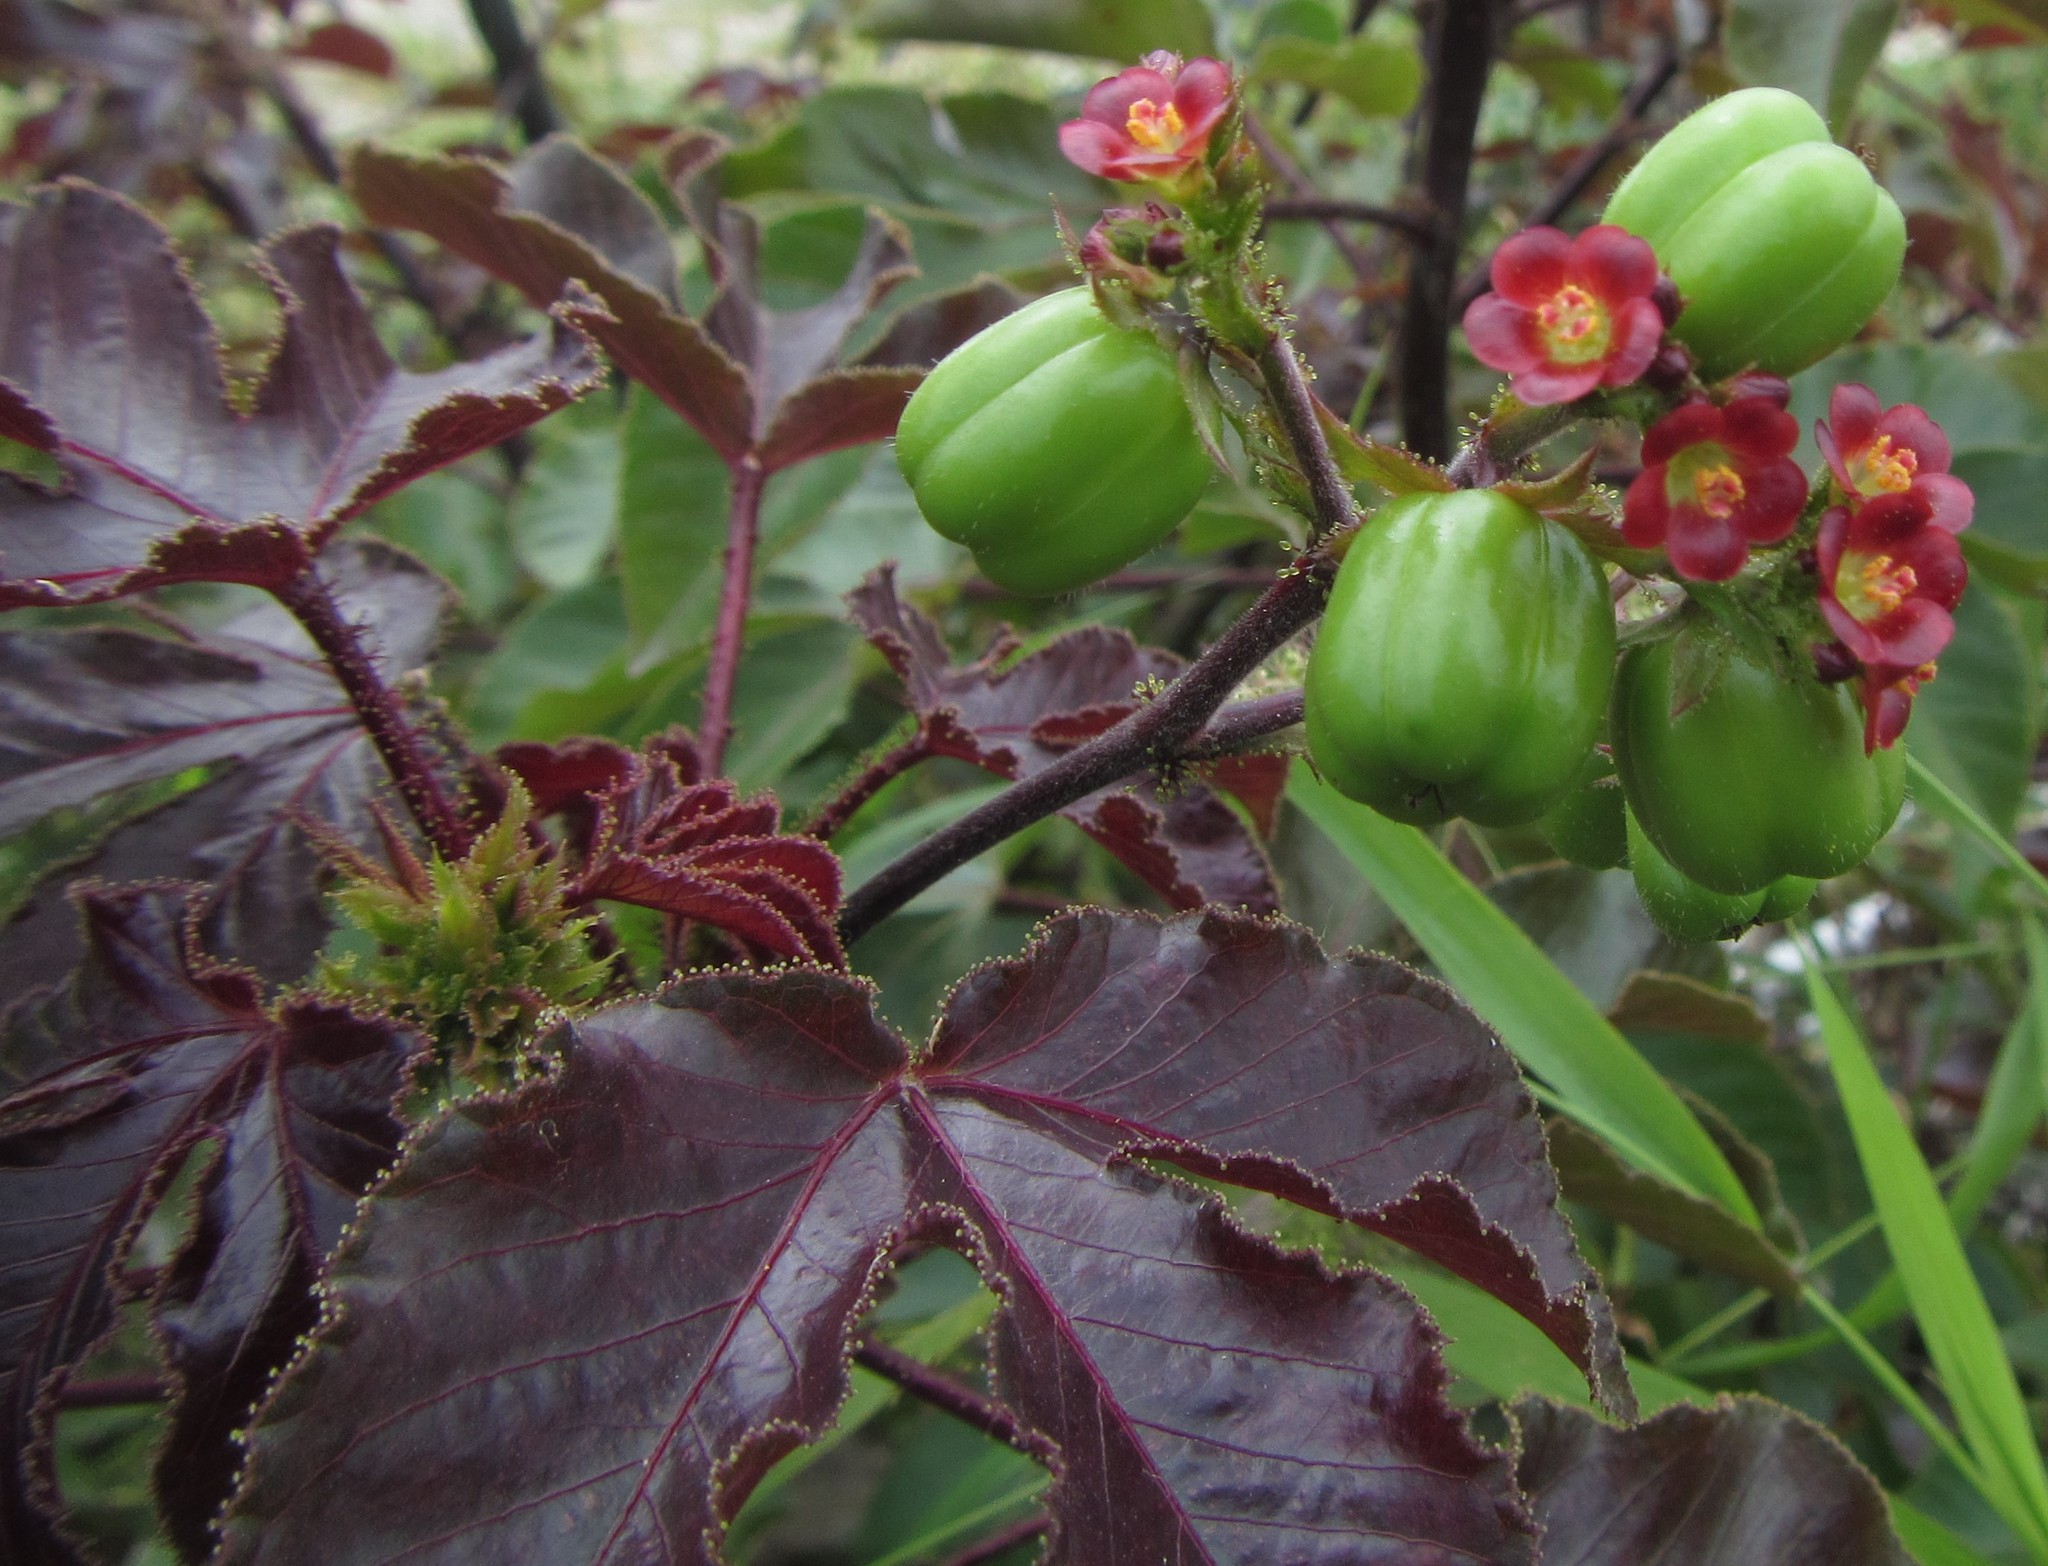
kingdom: Plantae
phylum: Tracheophyta
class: Magnoliopsida
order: Malpighiales
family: Euphorbiaceae
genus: Jatropha
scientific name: Jatropha gossypiifolia
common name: Bellyache bush
